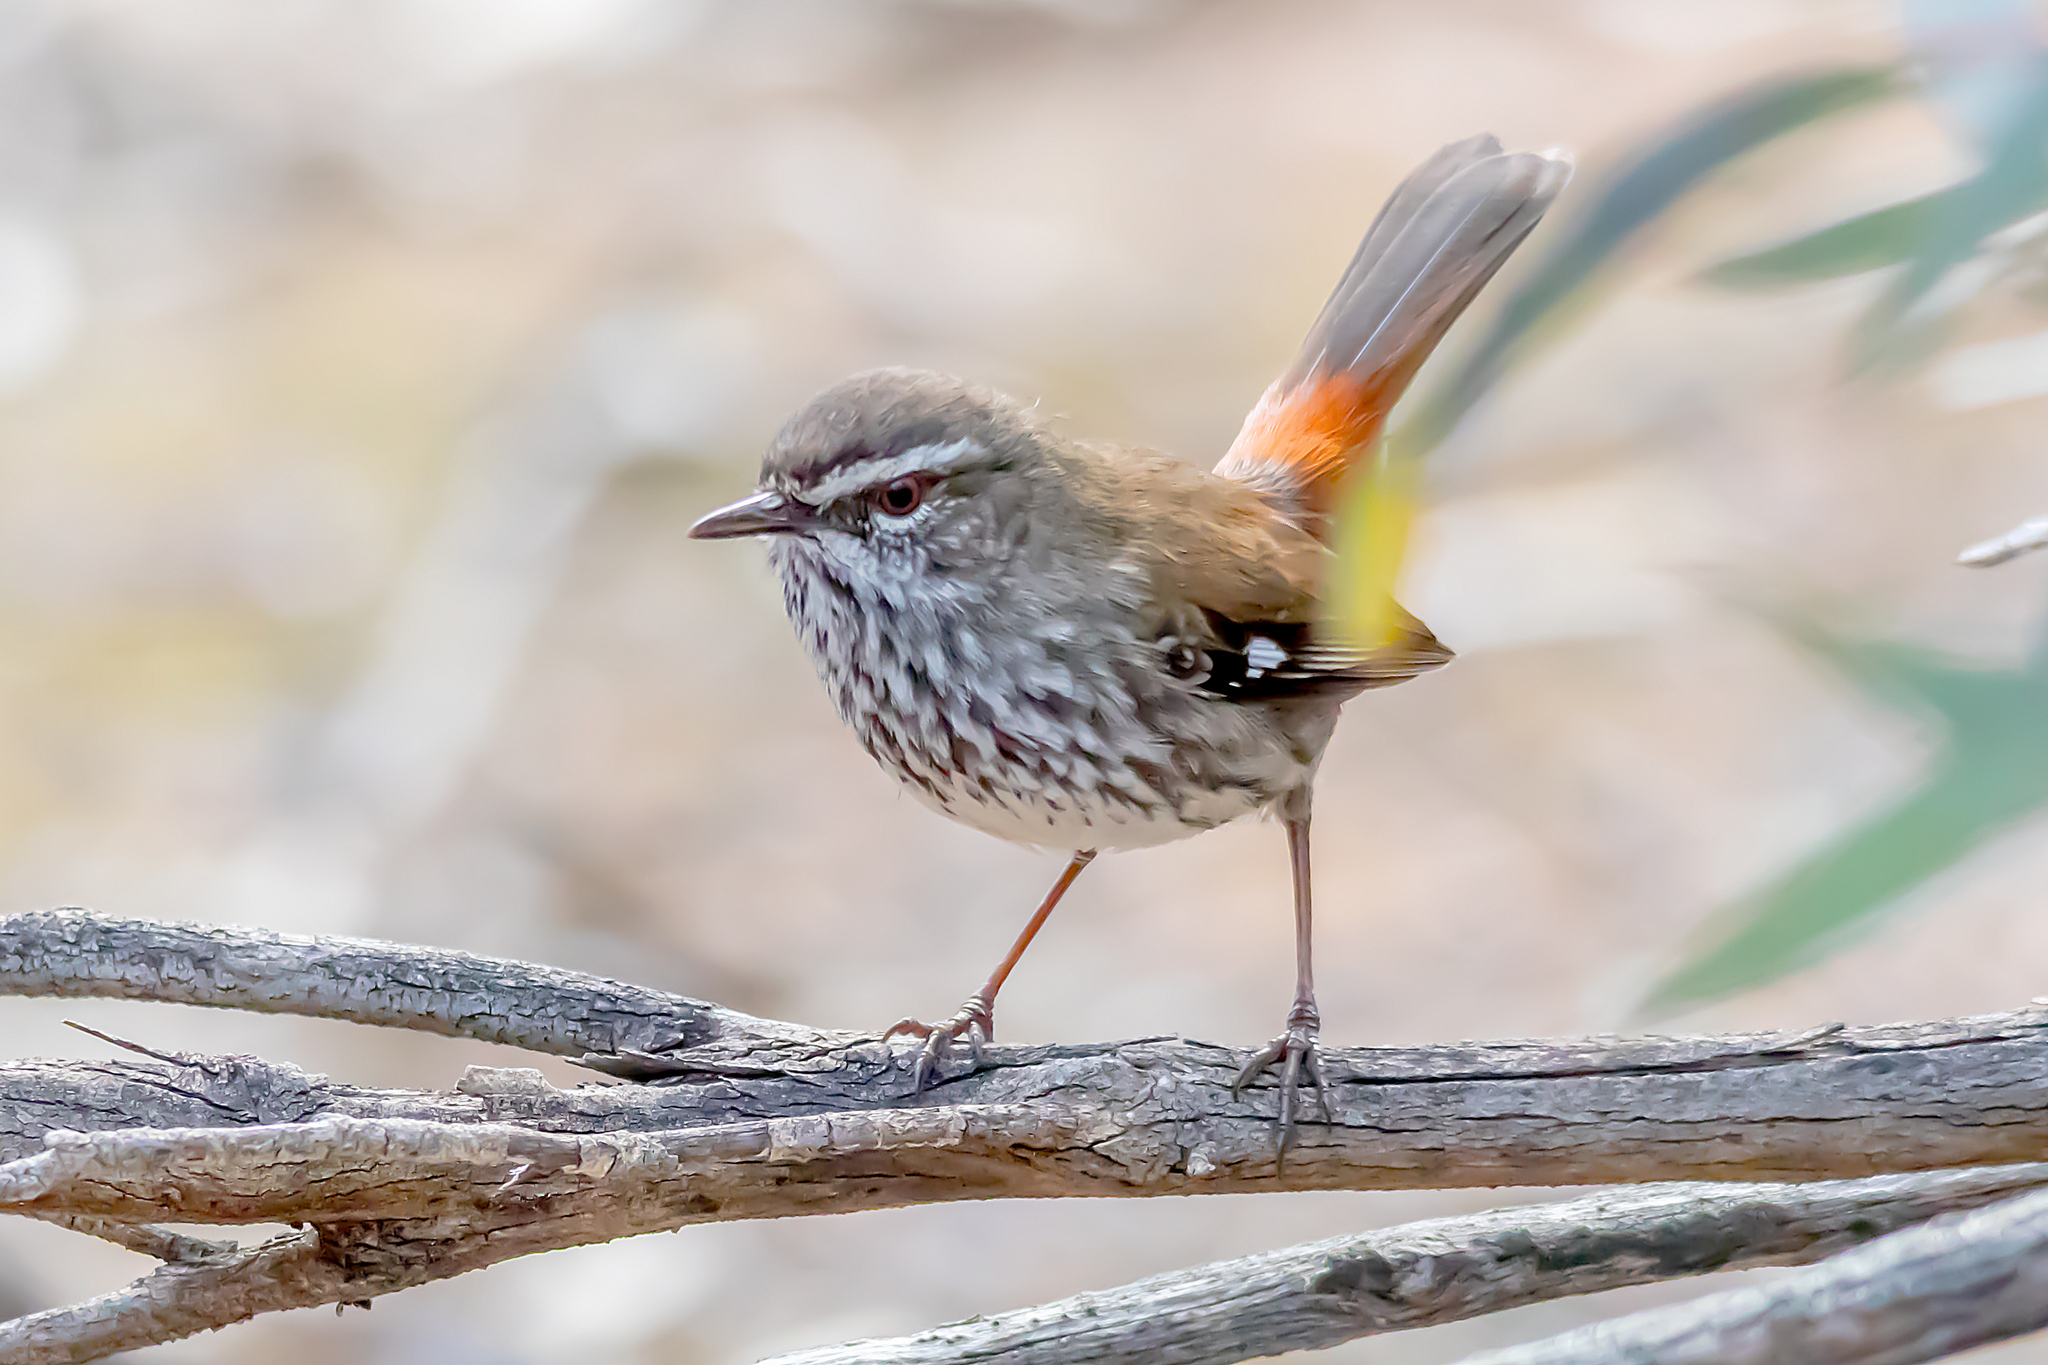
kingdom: Animalia
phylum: Chordata
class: Aves
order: Passeriformes
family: Acanthizidae
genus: Calamanthus
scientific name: Calamanthus cautus
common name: Shy heathwren
